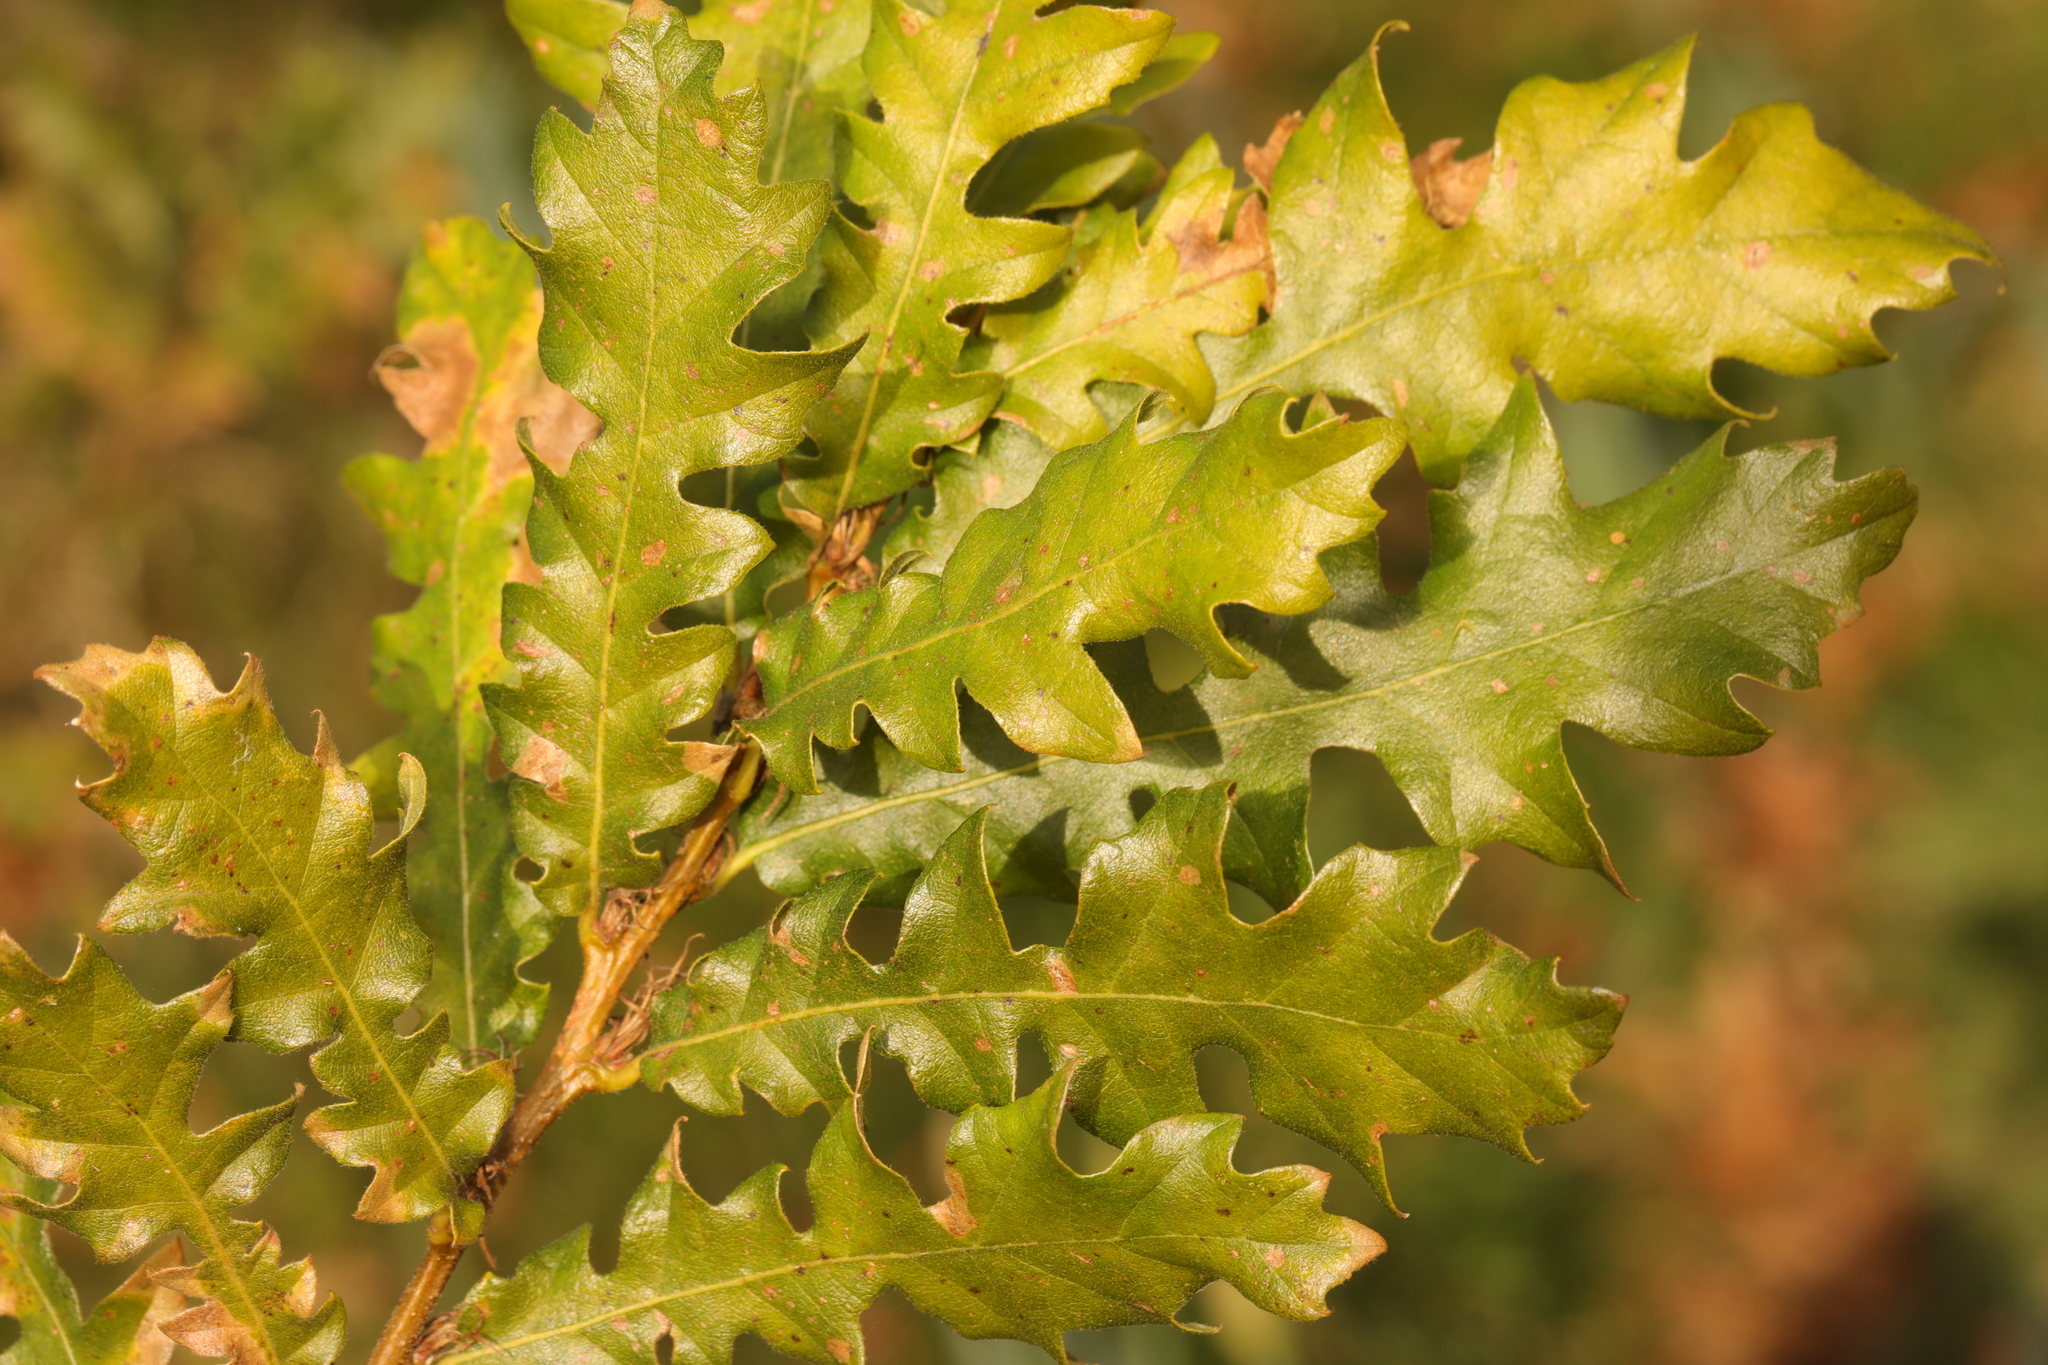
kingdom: Plantae
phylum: Tracheophyta
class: Magnoliopsida
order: Fagales
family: Fagaceae
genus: Quercus
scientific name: Quercus cerris
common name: Turkey oak
